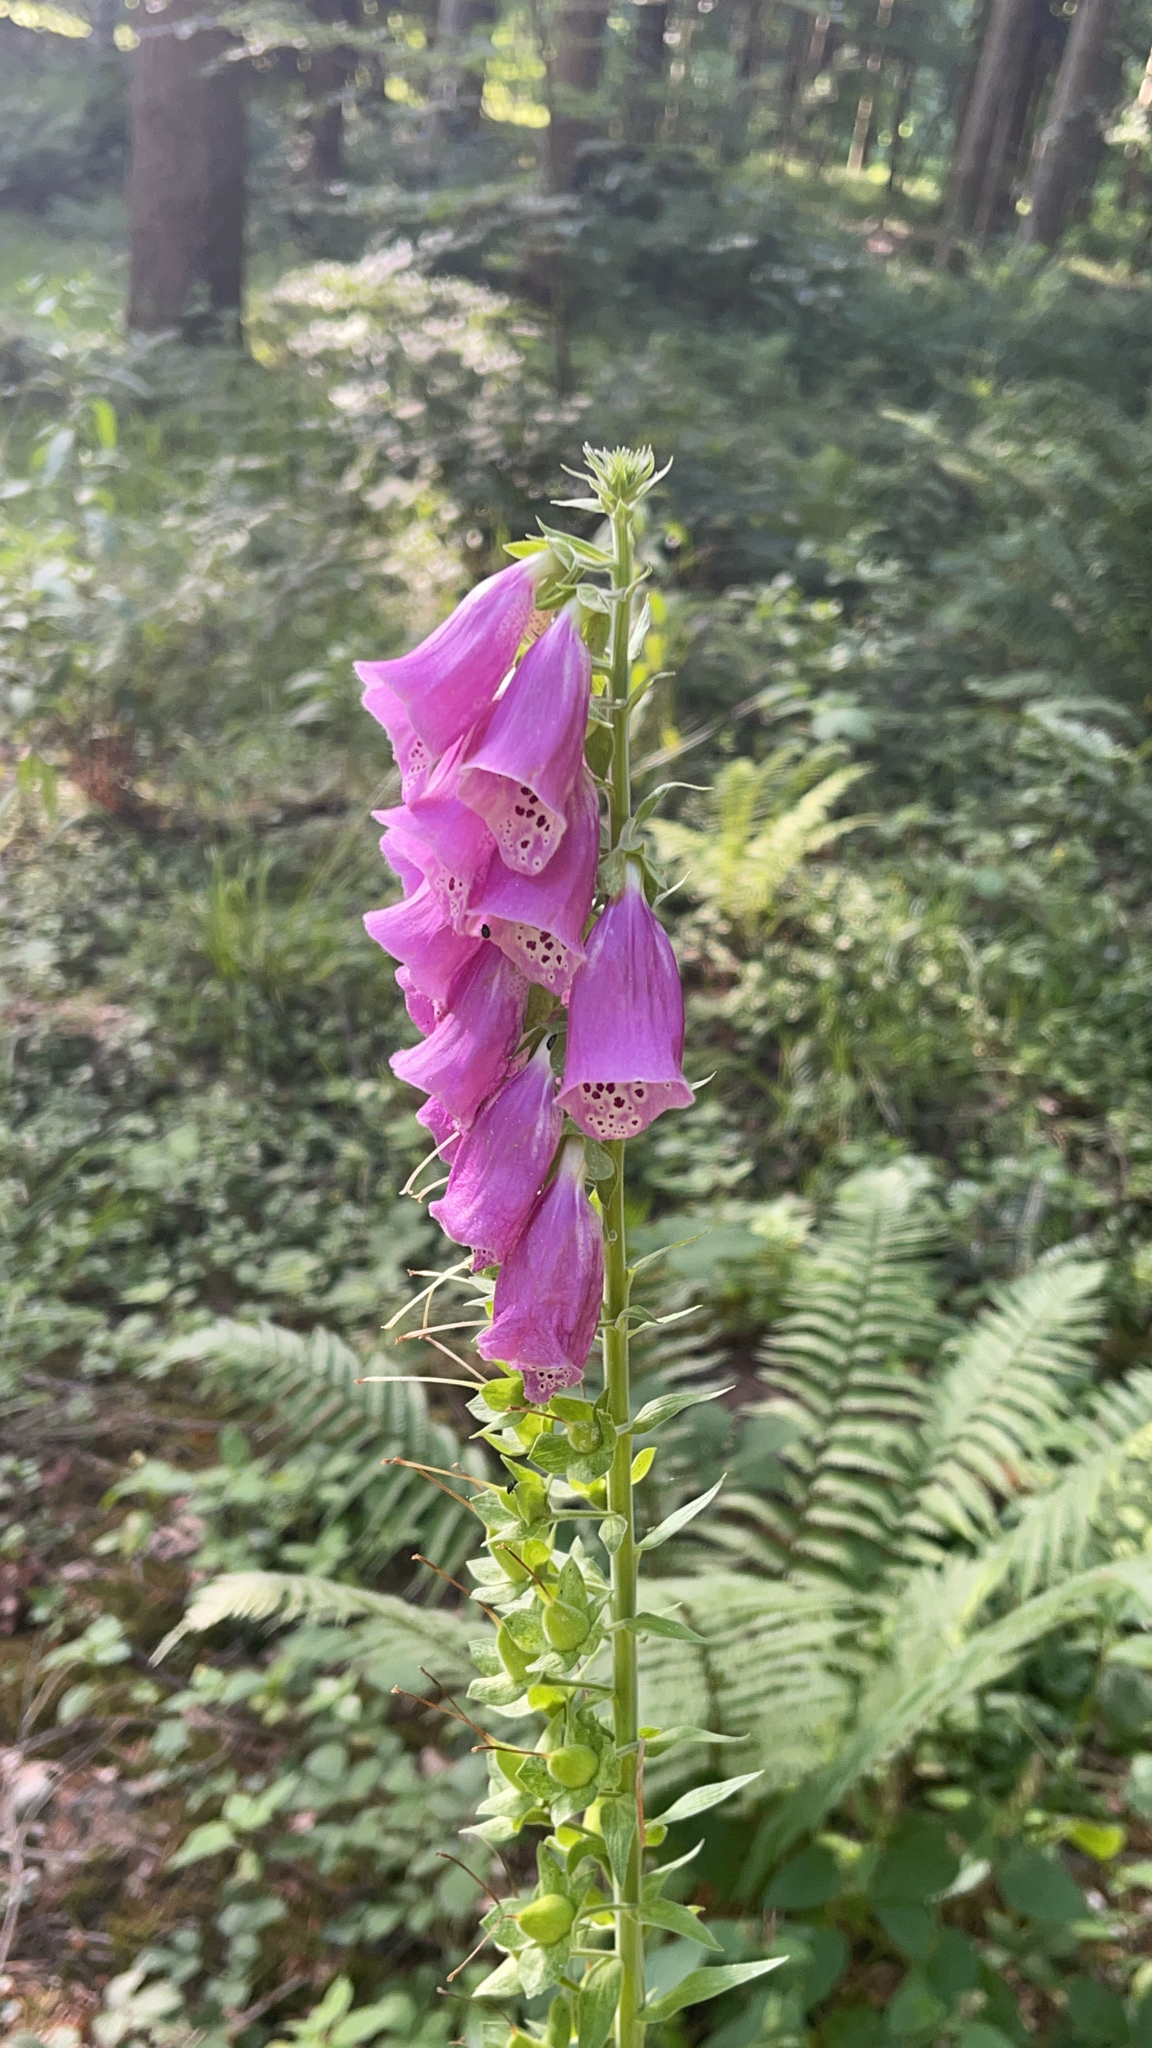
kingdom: Plantae
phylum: Tracheophyta
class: Magnoliopsida
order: Lamiales
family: Plantaginaceae
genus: Digitalis
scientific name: Digitalis purpurea
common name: Foxglove
